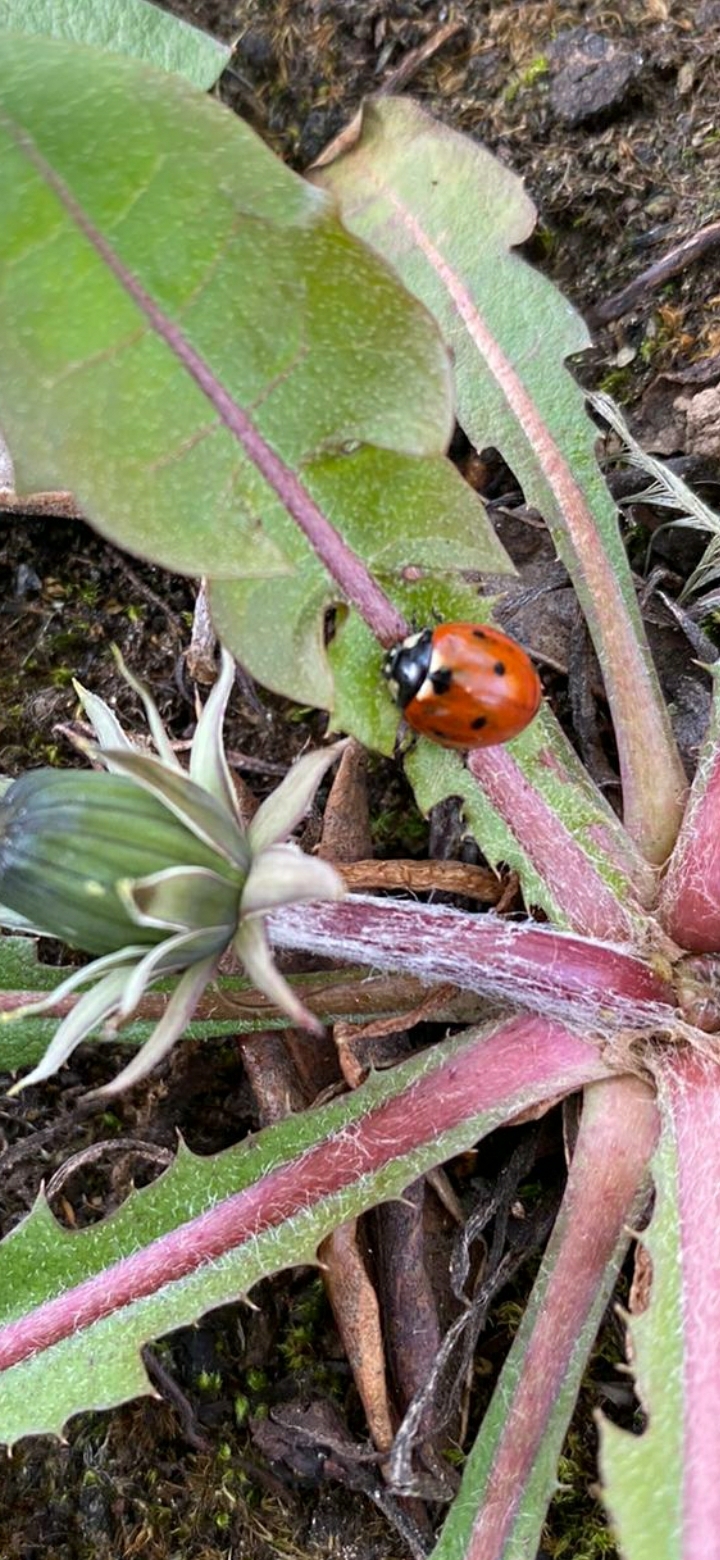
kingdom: Animalia
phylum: Arthropoda
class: Insecta
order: Coleoptera
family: Coccinellidae
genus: Coccinella
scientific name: Coccinella septempunctata
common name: Sevenspotted lady beetle
